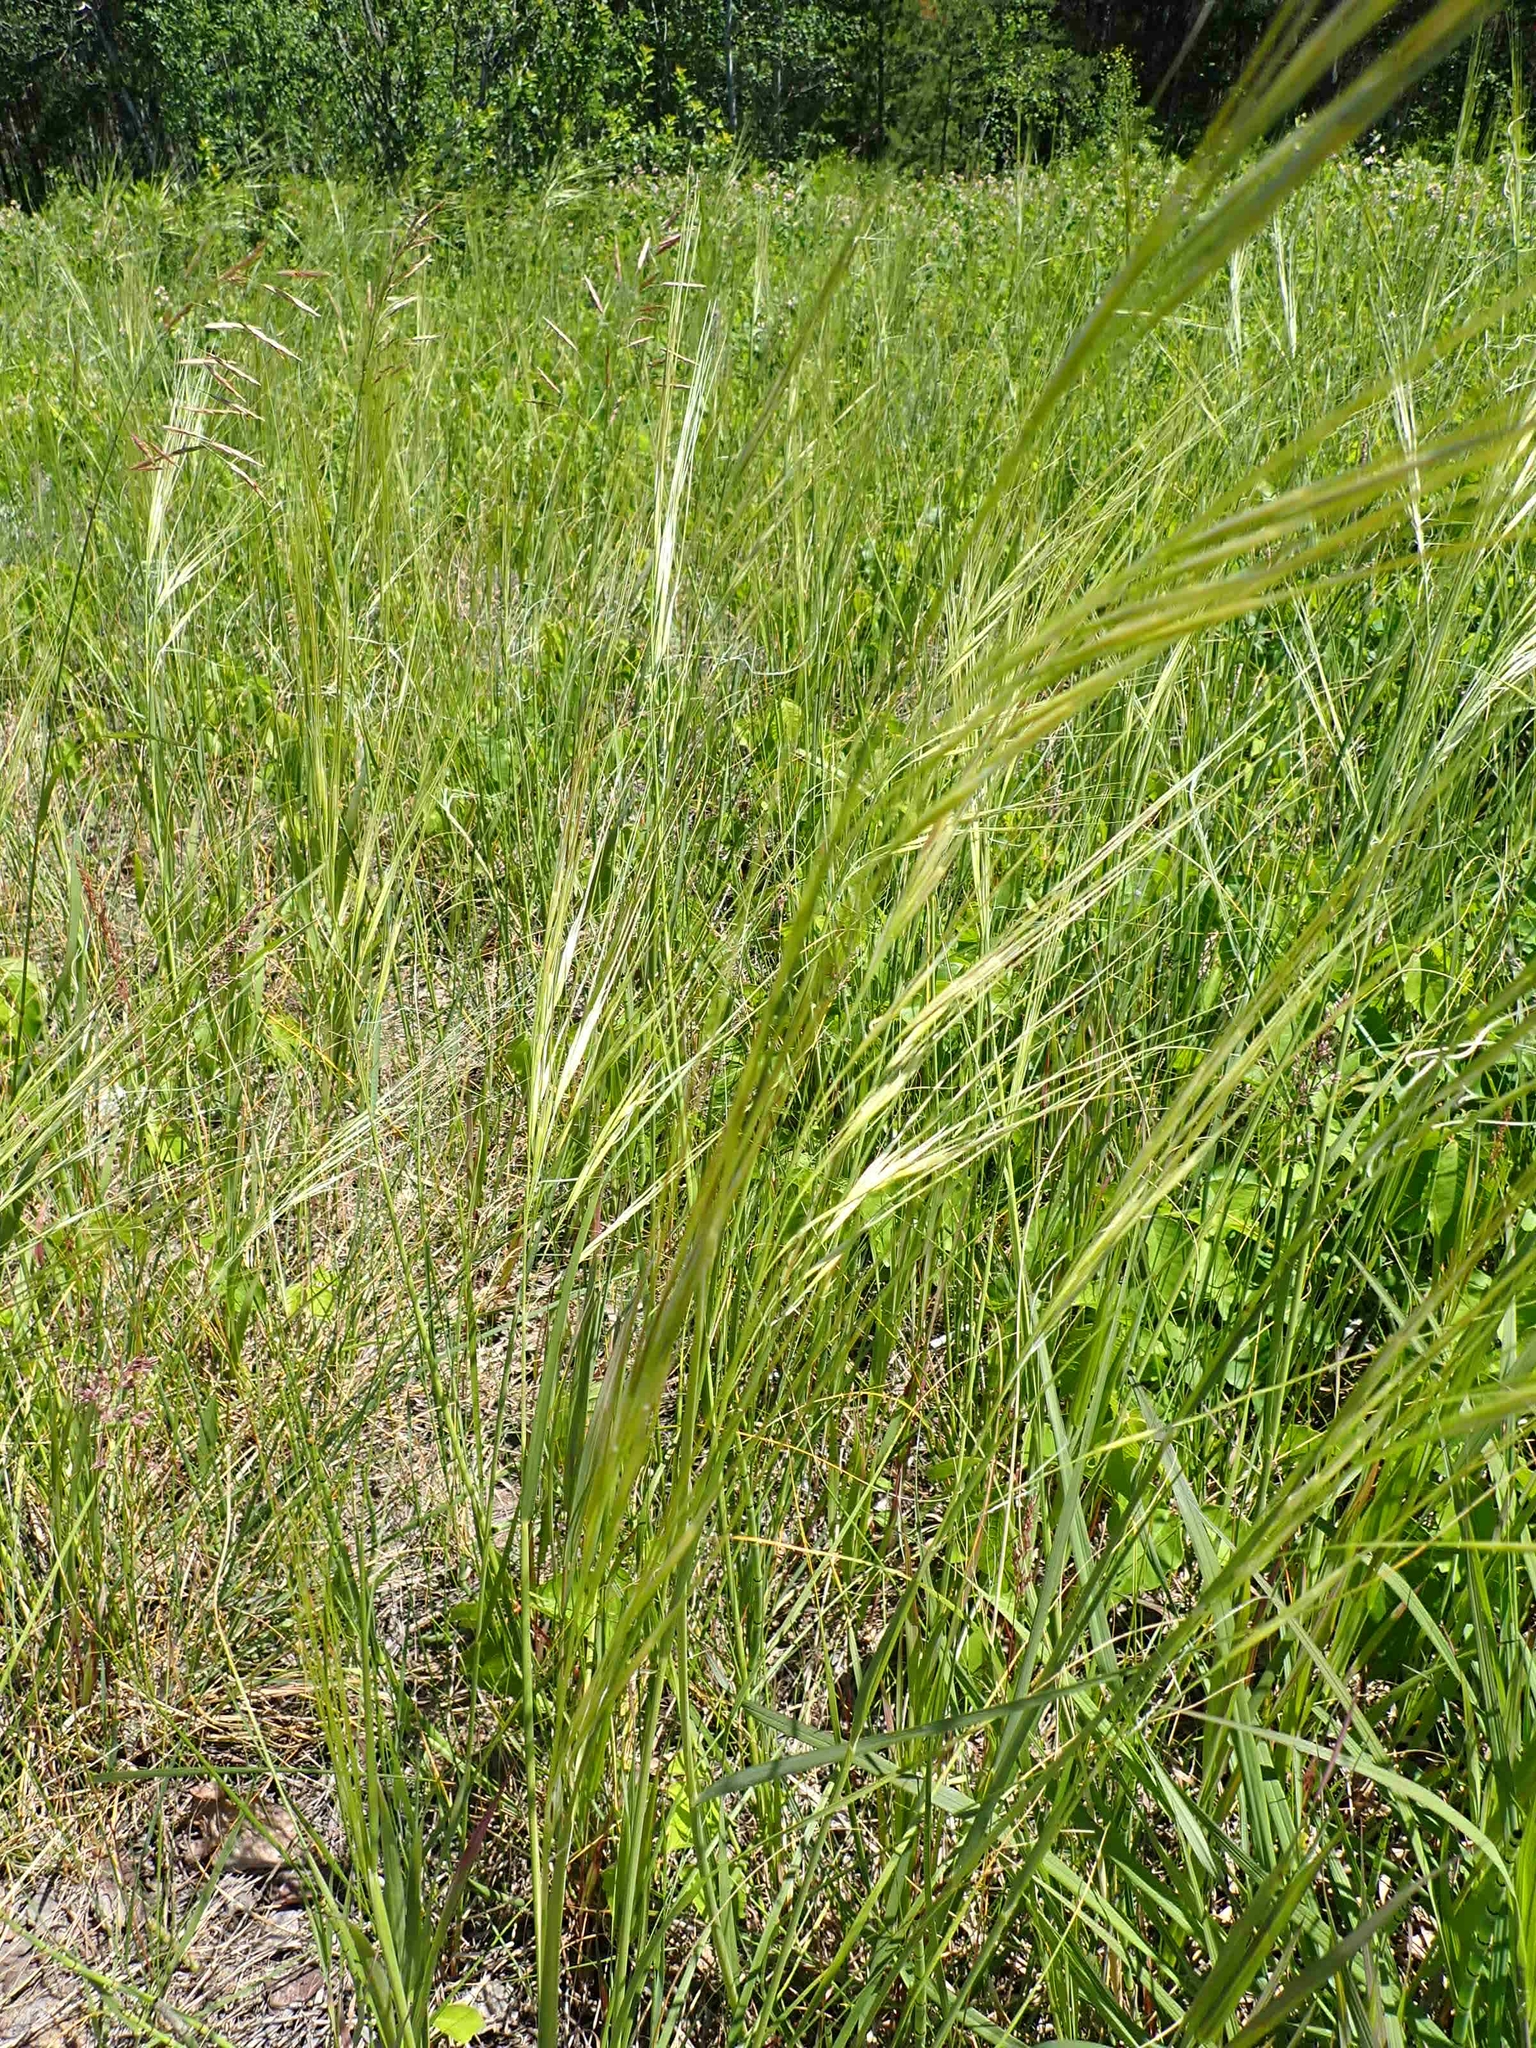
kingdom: Plantae
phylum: Tracheophyta
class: Liliopsida
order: Poales
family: Poaceae
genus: Hesperostipa
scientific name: Hesperostipa spartea
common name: Porcupine grass
